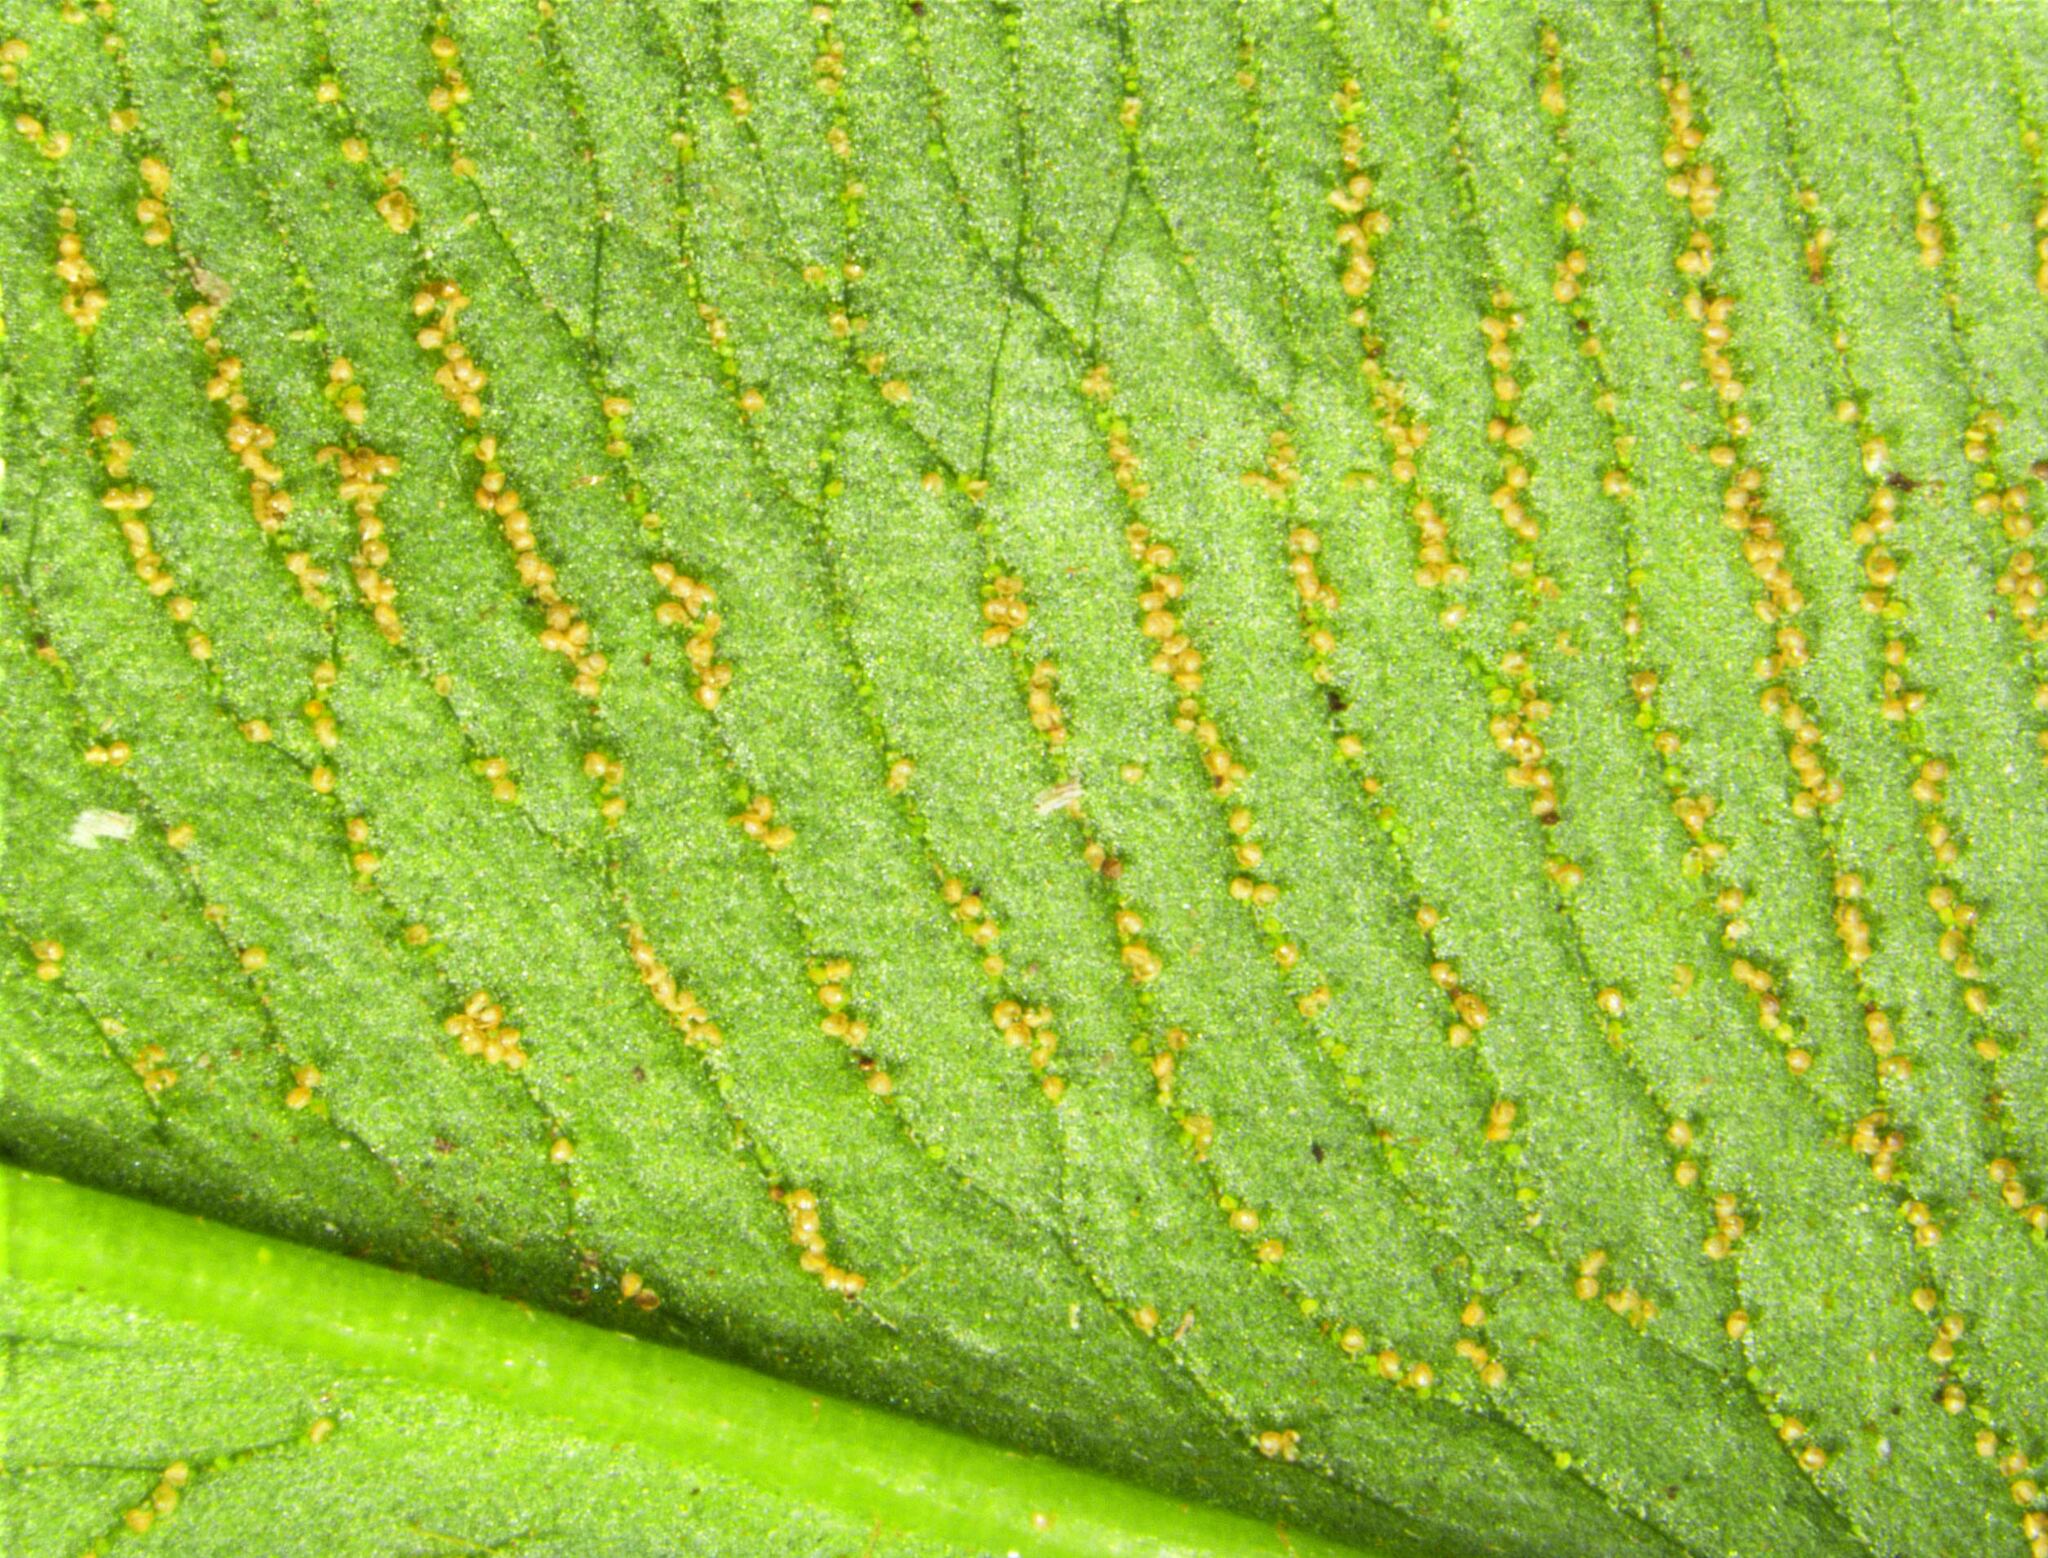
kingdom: Plantae
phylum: Tracheophyta
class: Polypodiopsida
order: Polypodiales
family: Pteridaceae
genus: Coniogramme
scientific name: Coniogramme japonica
